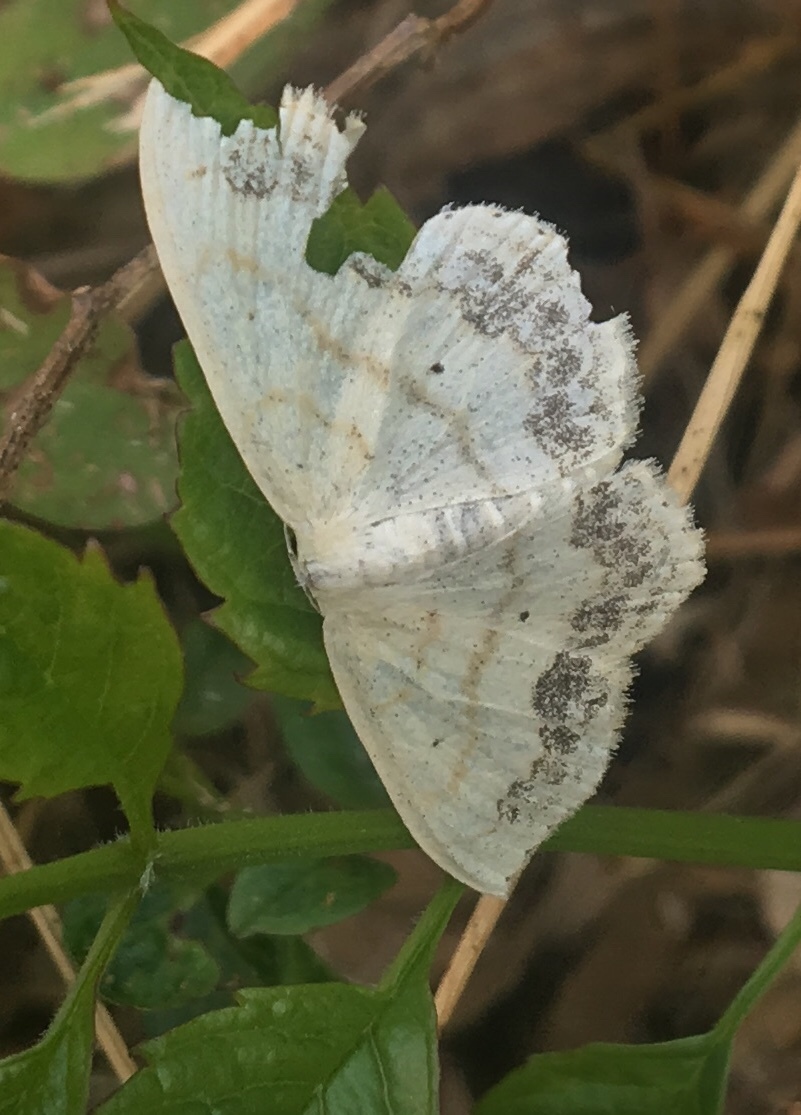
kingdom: Animalia
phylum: Arthropoda
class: Insecta
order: Lepidoptera
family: Geometridae
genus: Scopula
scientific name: Scopula limboundata
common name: Large lace border
